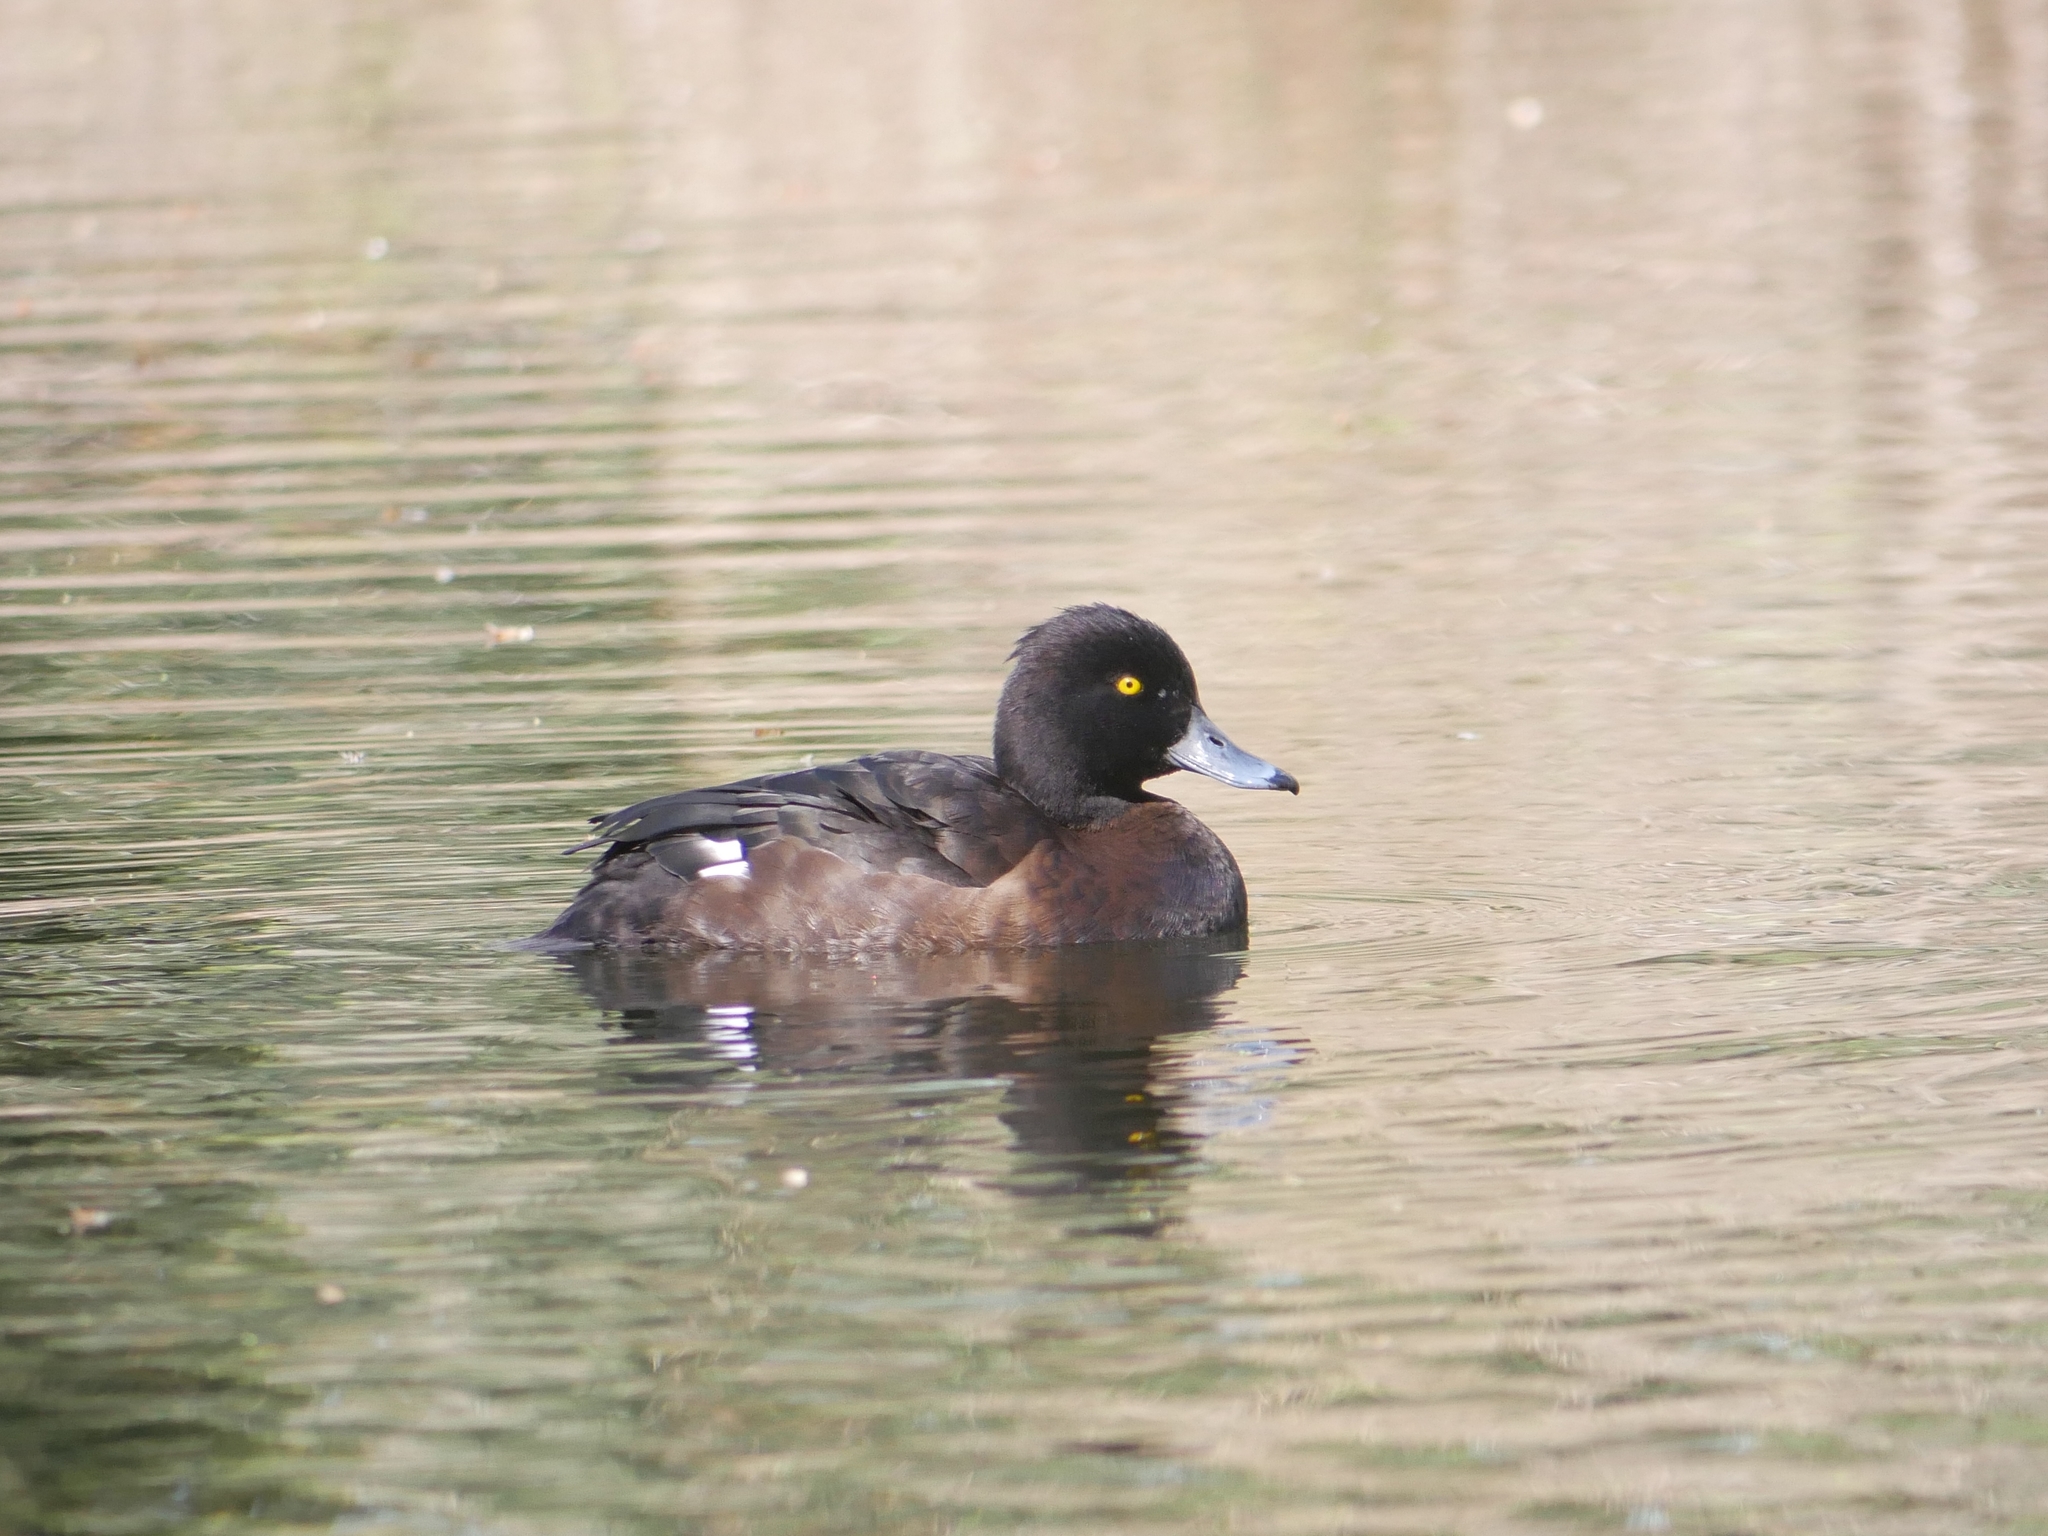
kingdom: Animalia
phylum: Chordata
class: Aves
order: Anseriformes
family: Anatidae
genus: Aythya
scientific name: Aythya fuligula
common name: Tufted duck
